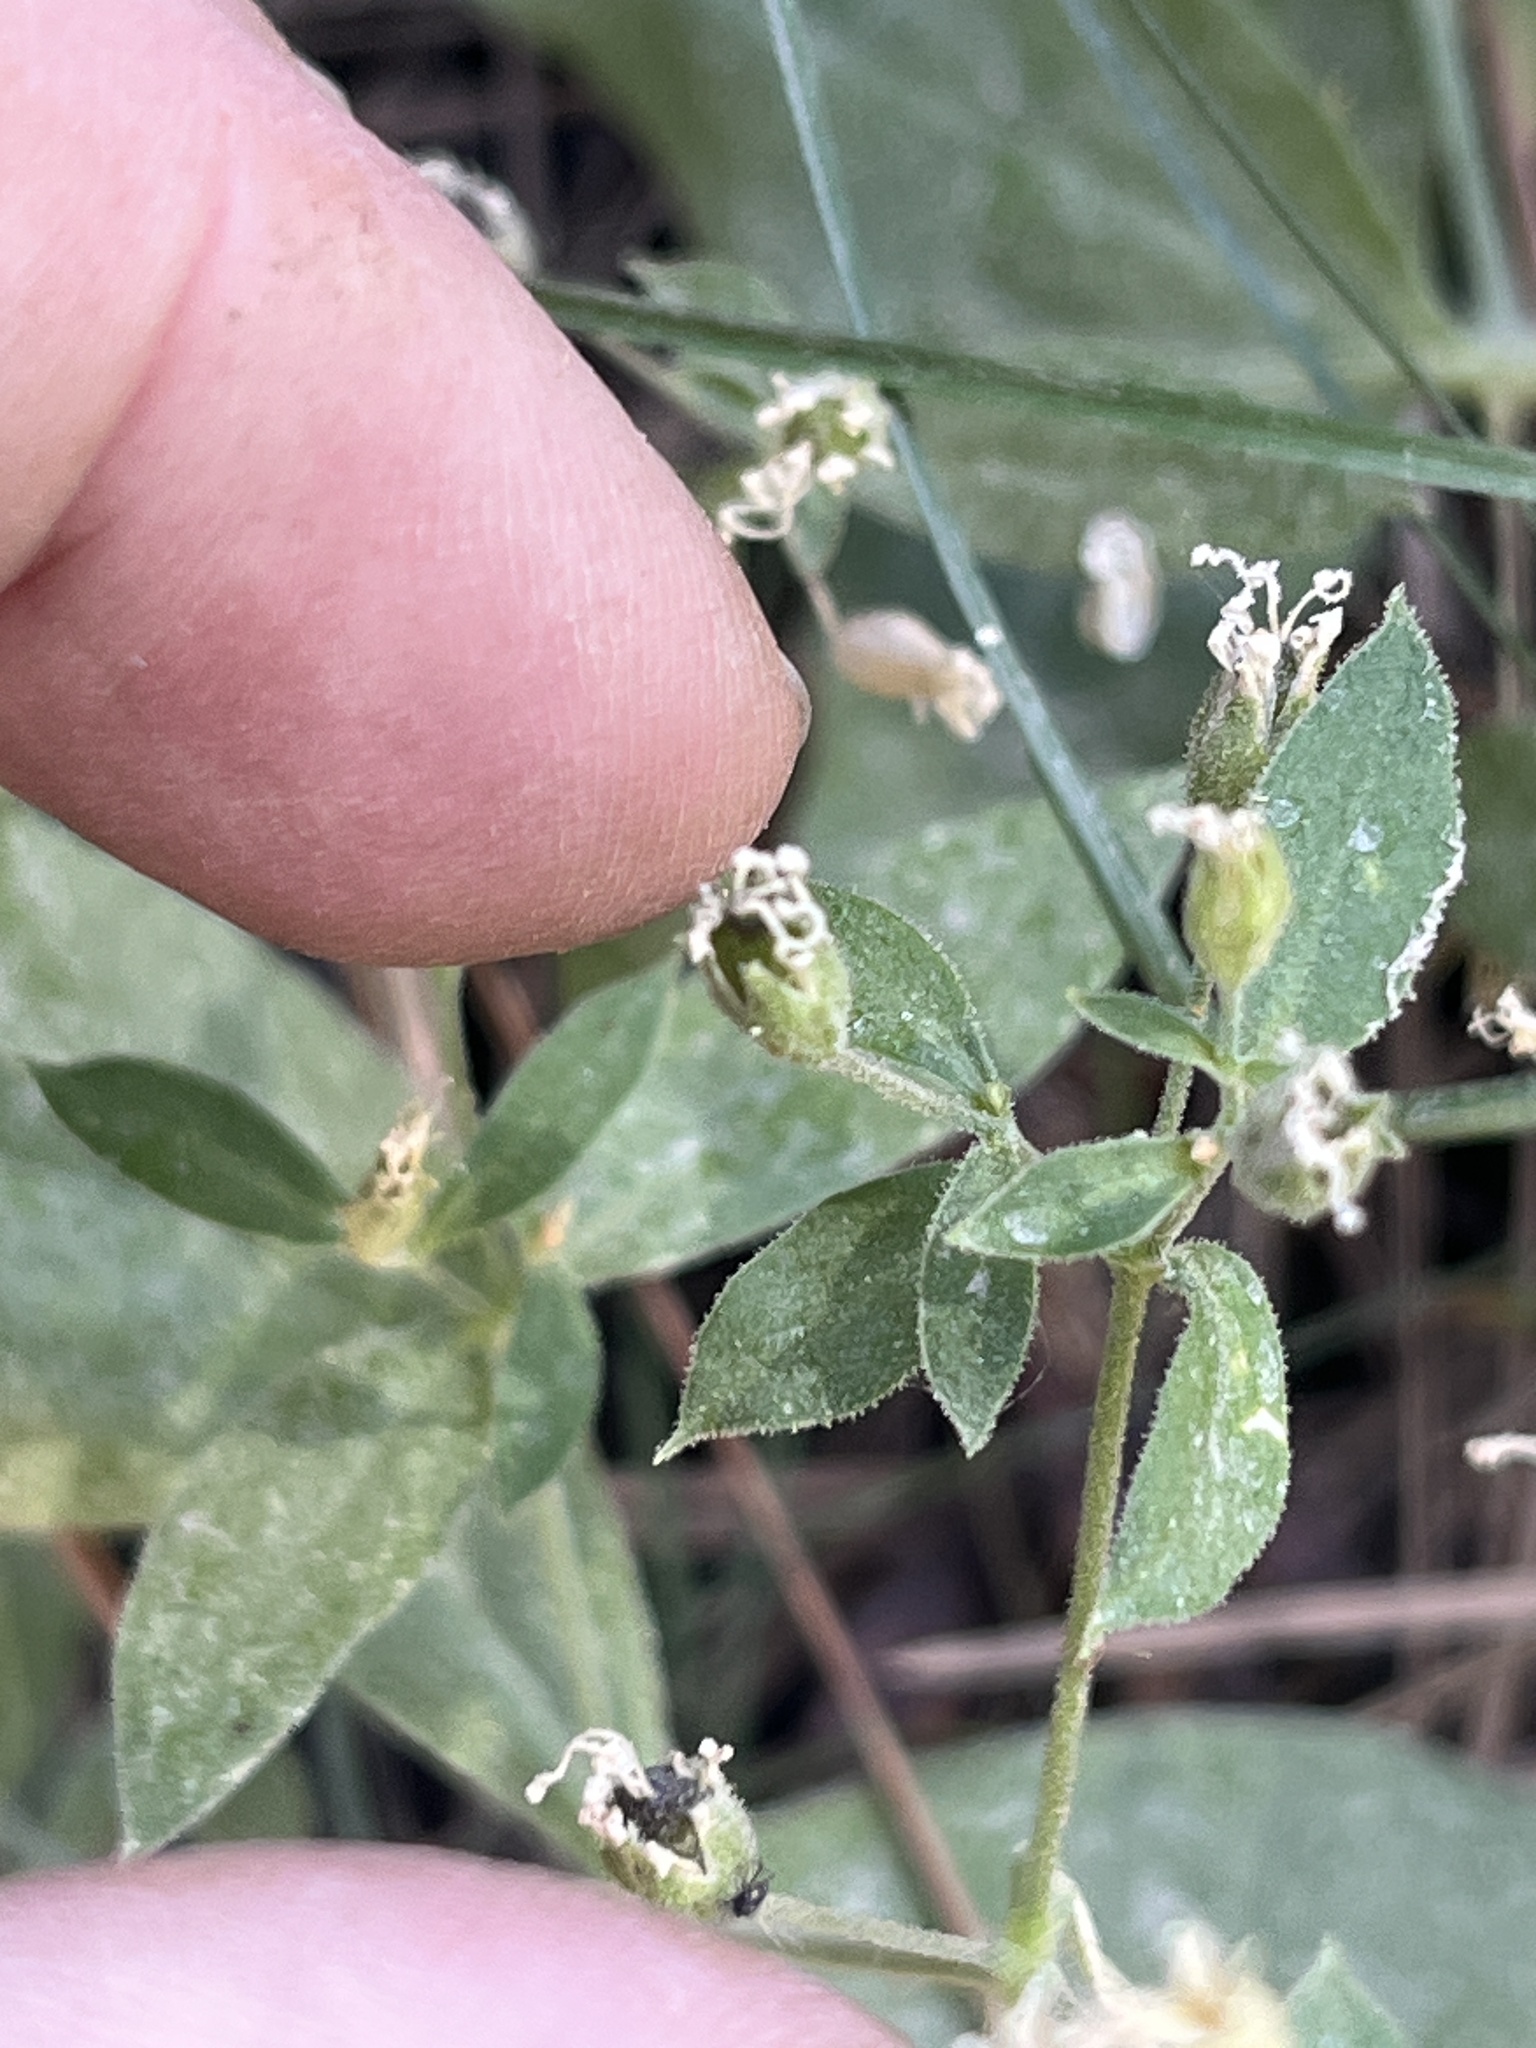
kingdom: Plantae
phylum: Tracheophyta
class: Magnoliopsida
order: Caryophyllales
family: Caryophyllaceae
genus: Silene
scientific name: Silene menziesii
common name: Menzies's catchfly
